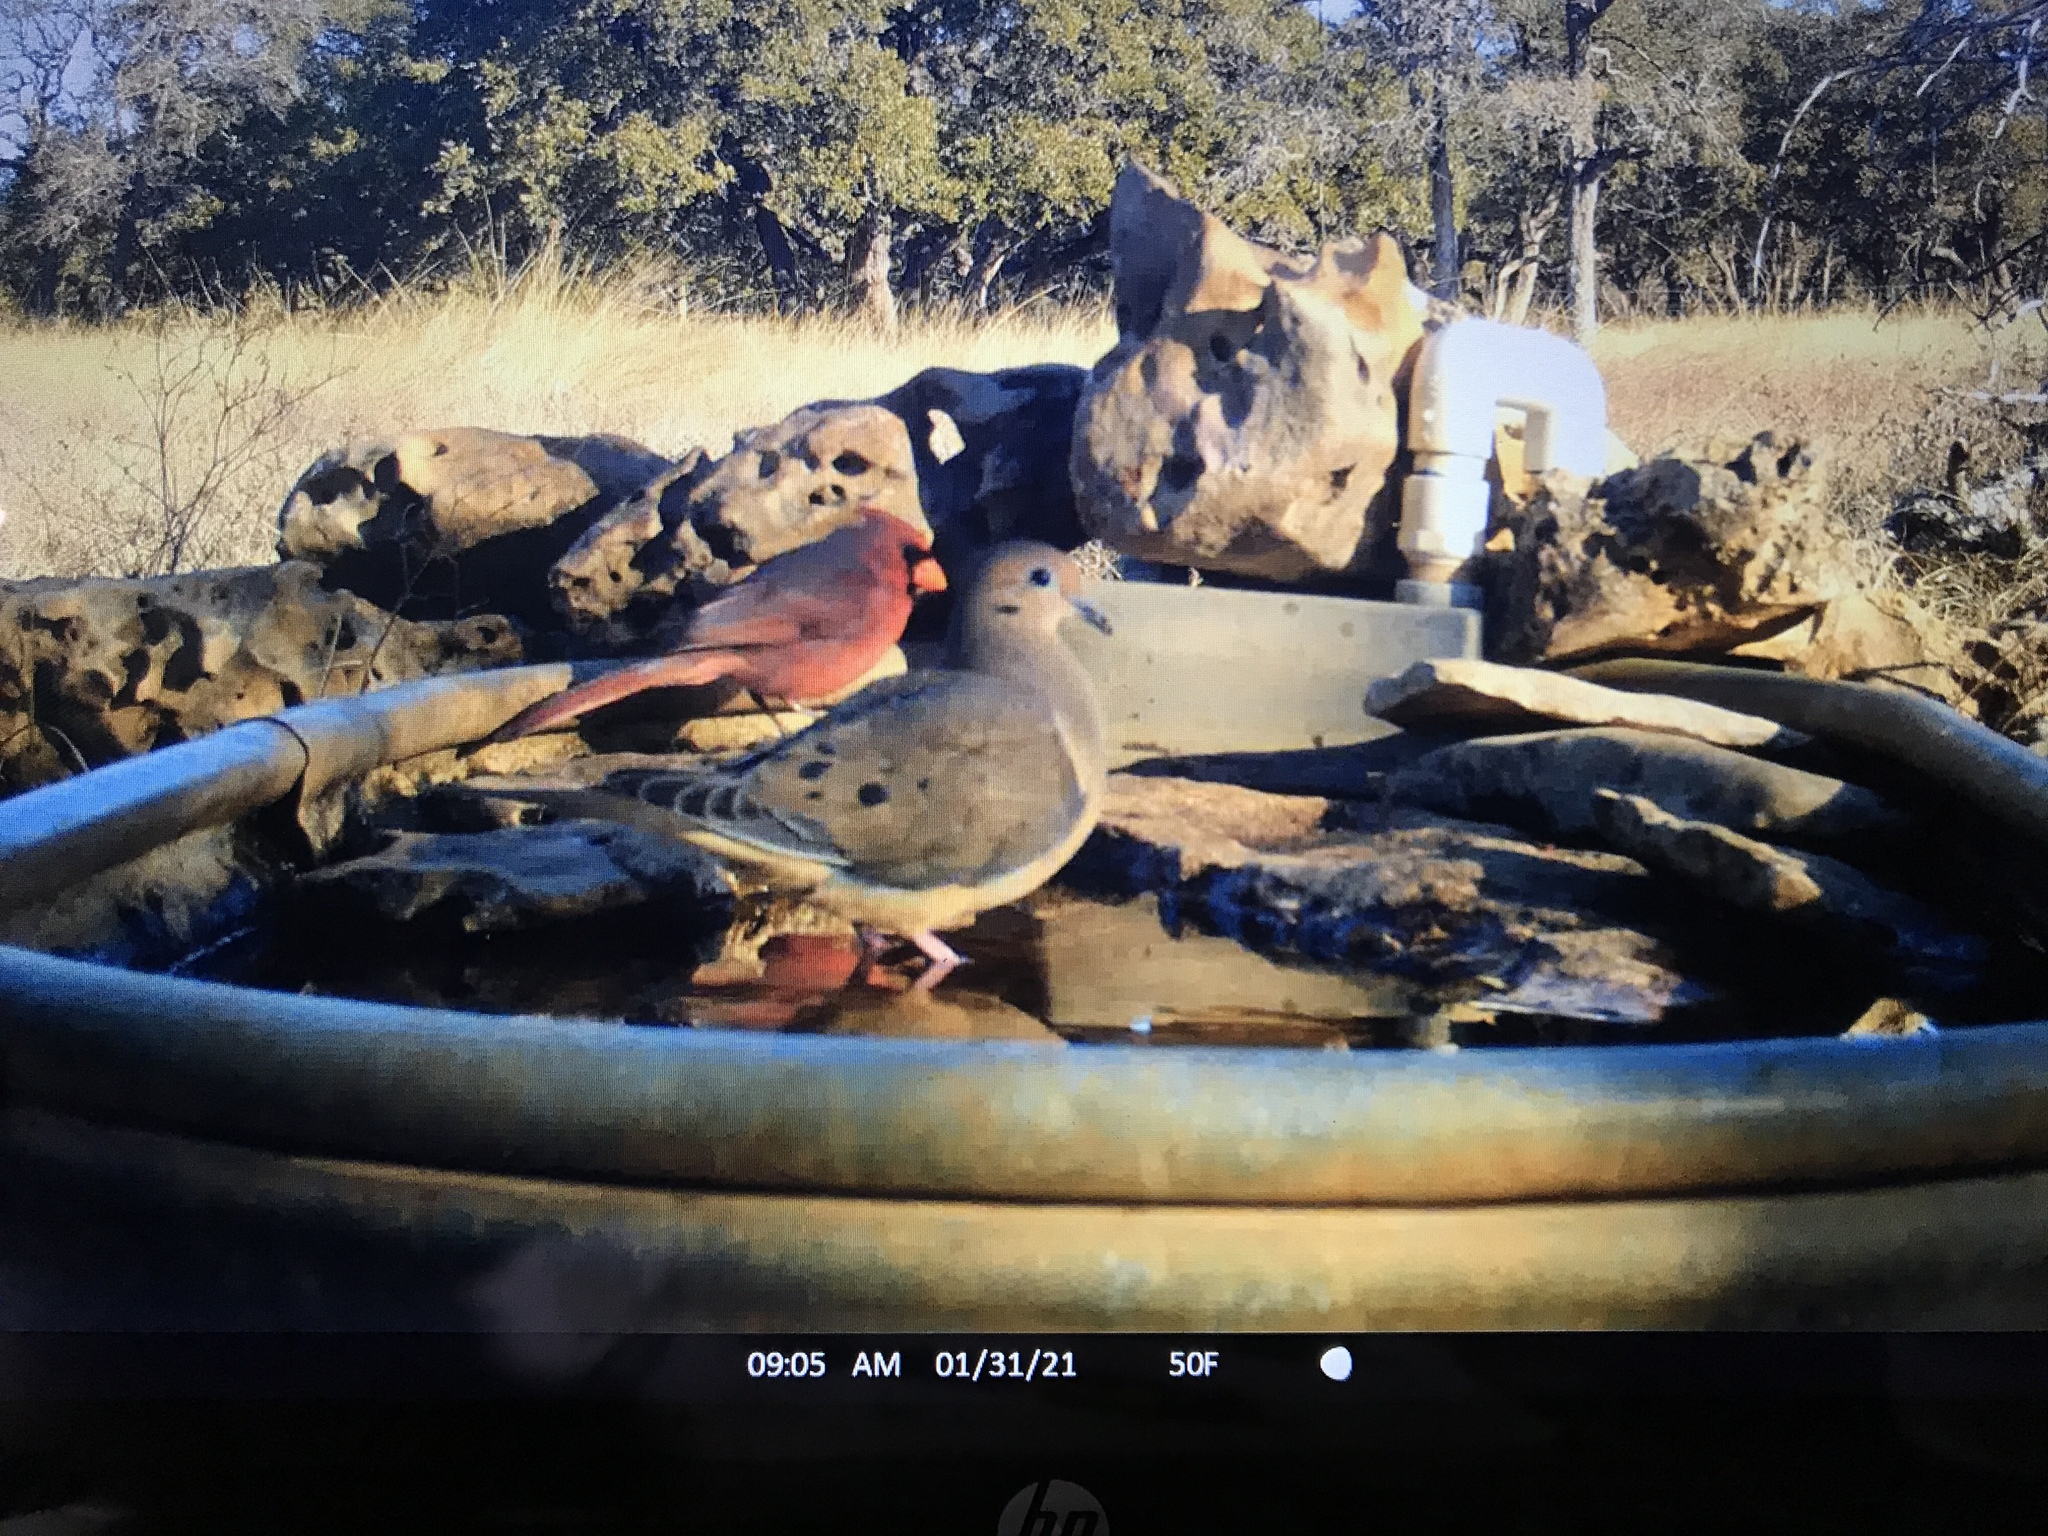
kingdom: Animalia
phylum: Chordata
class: Aves
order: Columbiformes
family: Columbidae
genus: Zenaida
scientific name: Zenaida macroura
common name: Mourning dove
